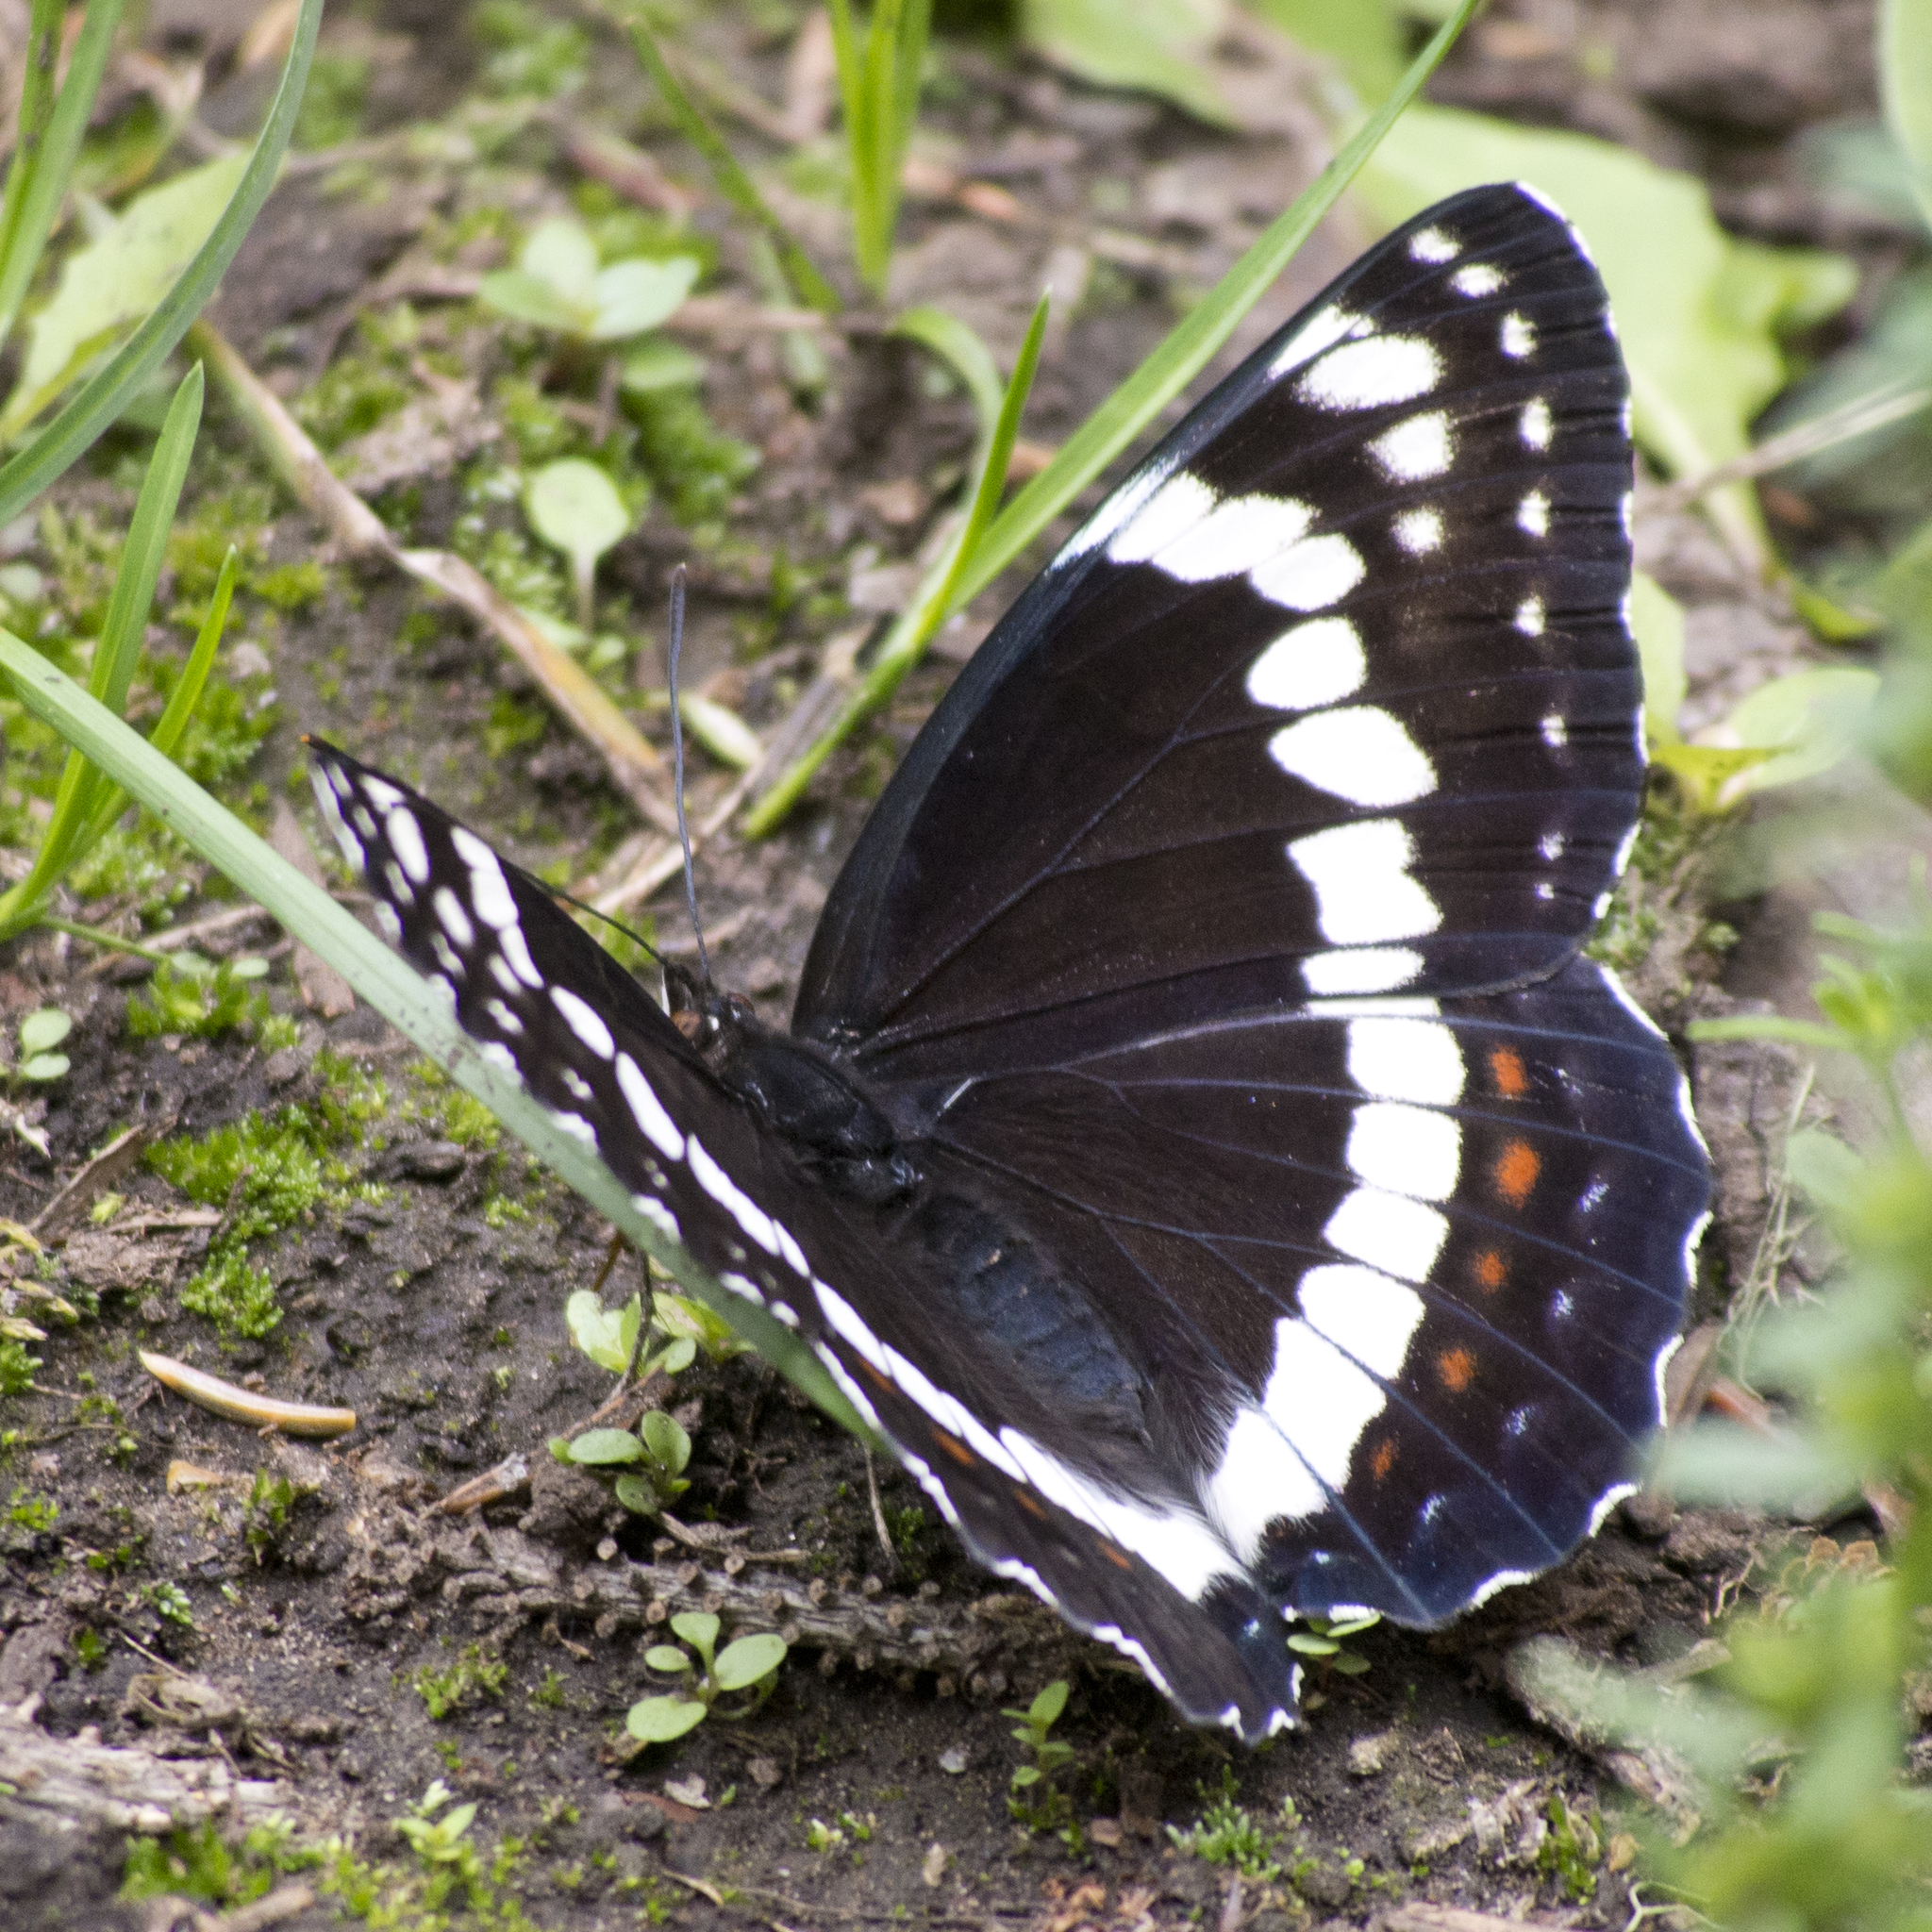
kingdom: Animalia
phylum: Arthropoda
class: Insecta
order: Lepidoptera
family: Nymphalidae
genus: Limenitis
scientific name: Limenitis weidemeyerii
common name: Weidemeyer's admiral
